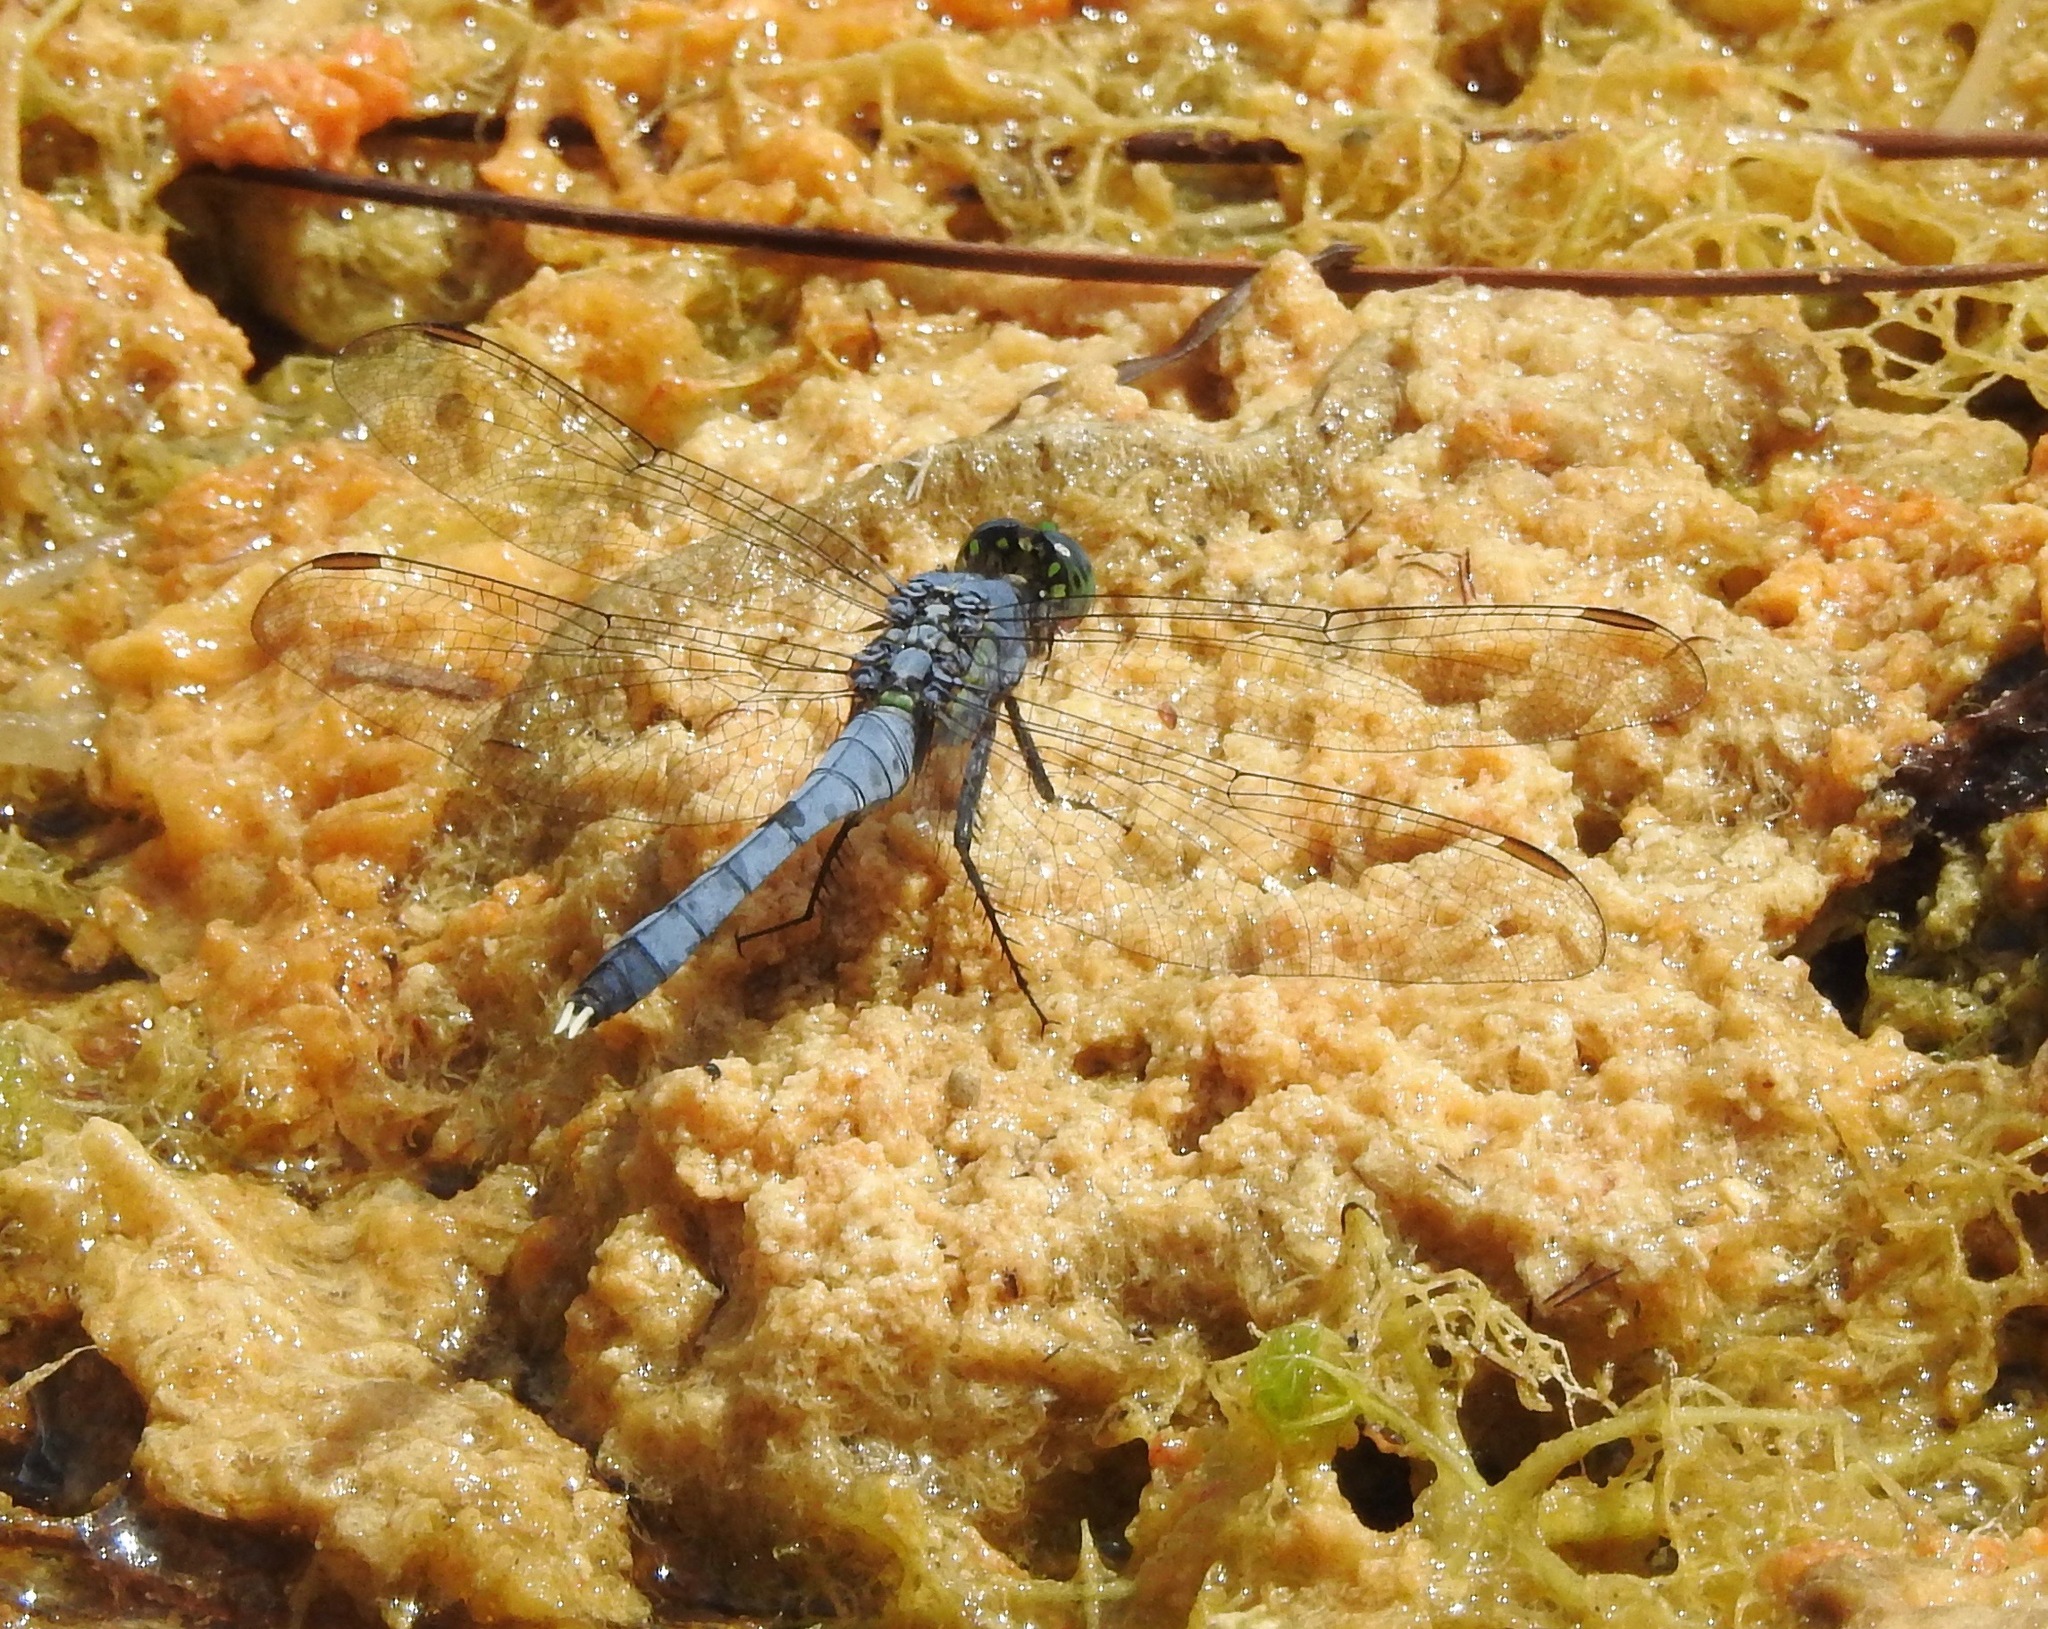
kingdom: Animalia
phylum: Arthropoda
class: Insecta
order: Odonata
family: Libellulidae
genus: Erythemis
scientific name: Erythemis simplicicollis
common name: Eastern pondhawk
